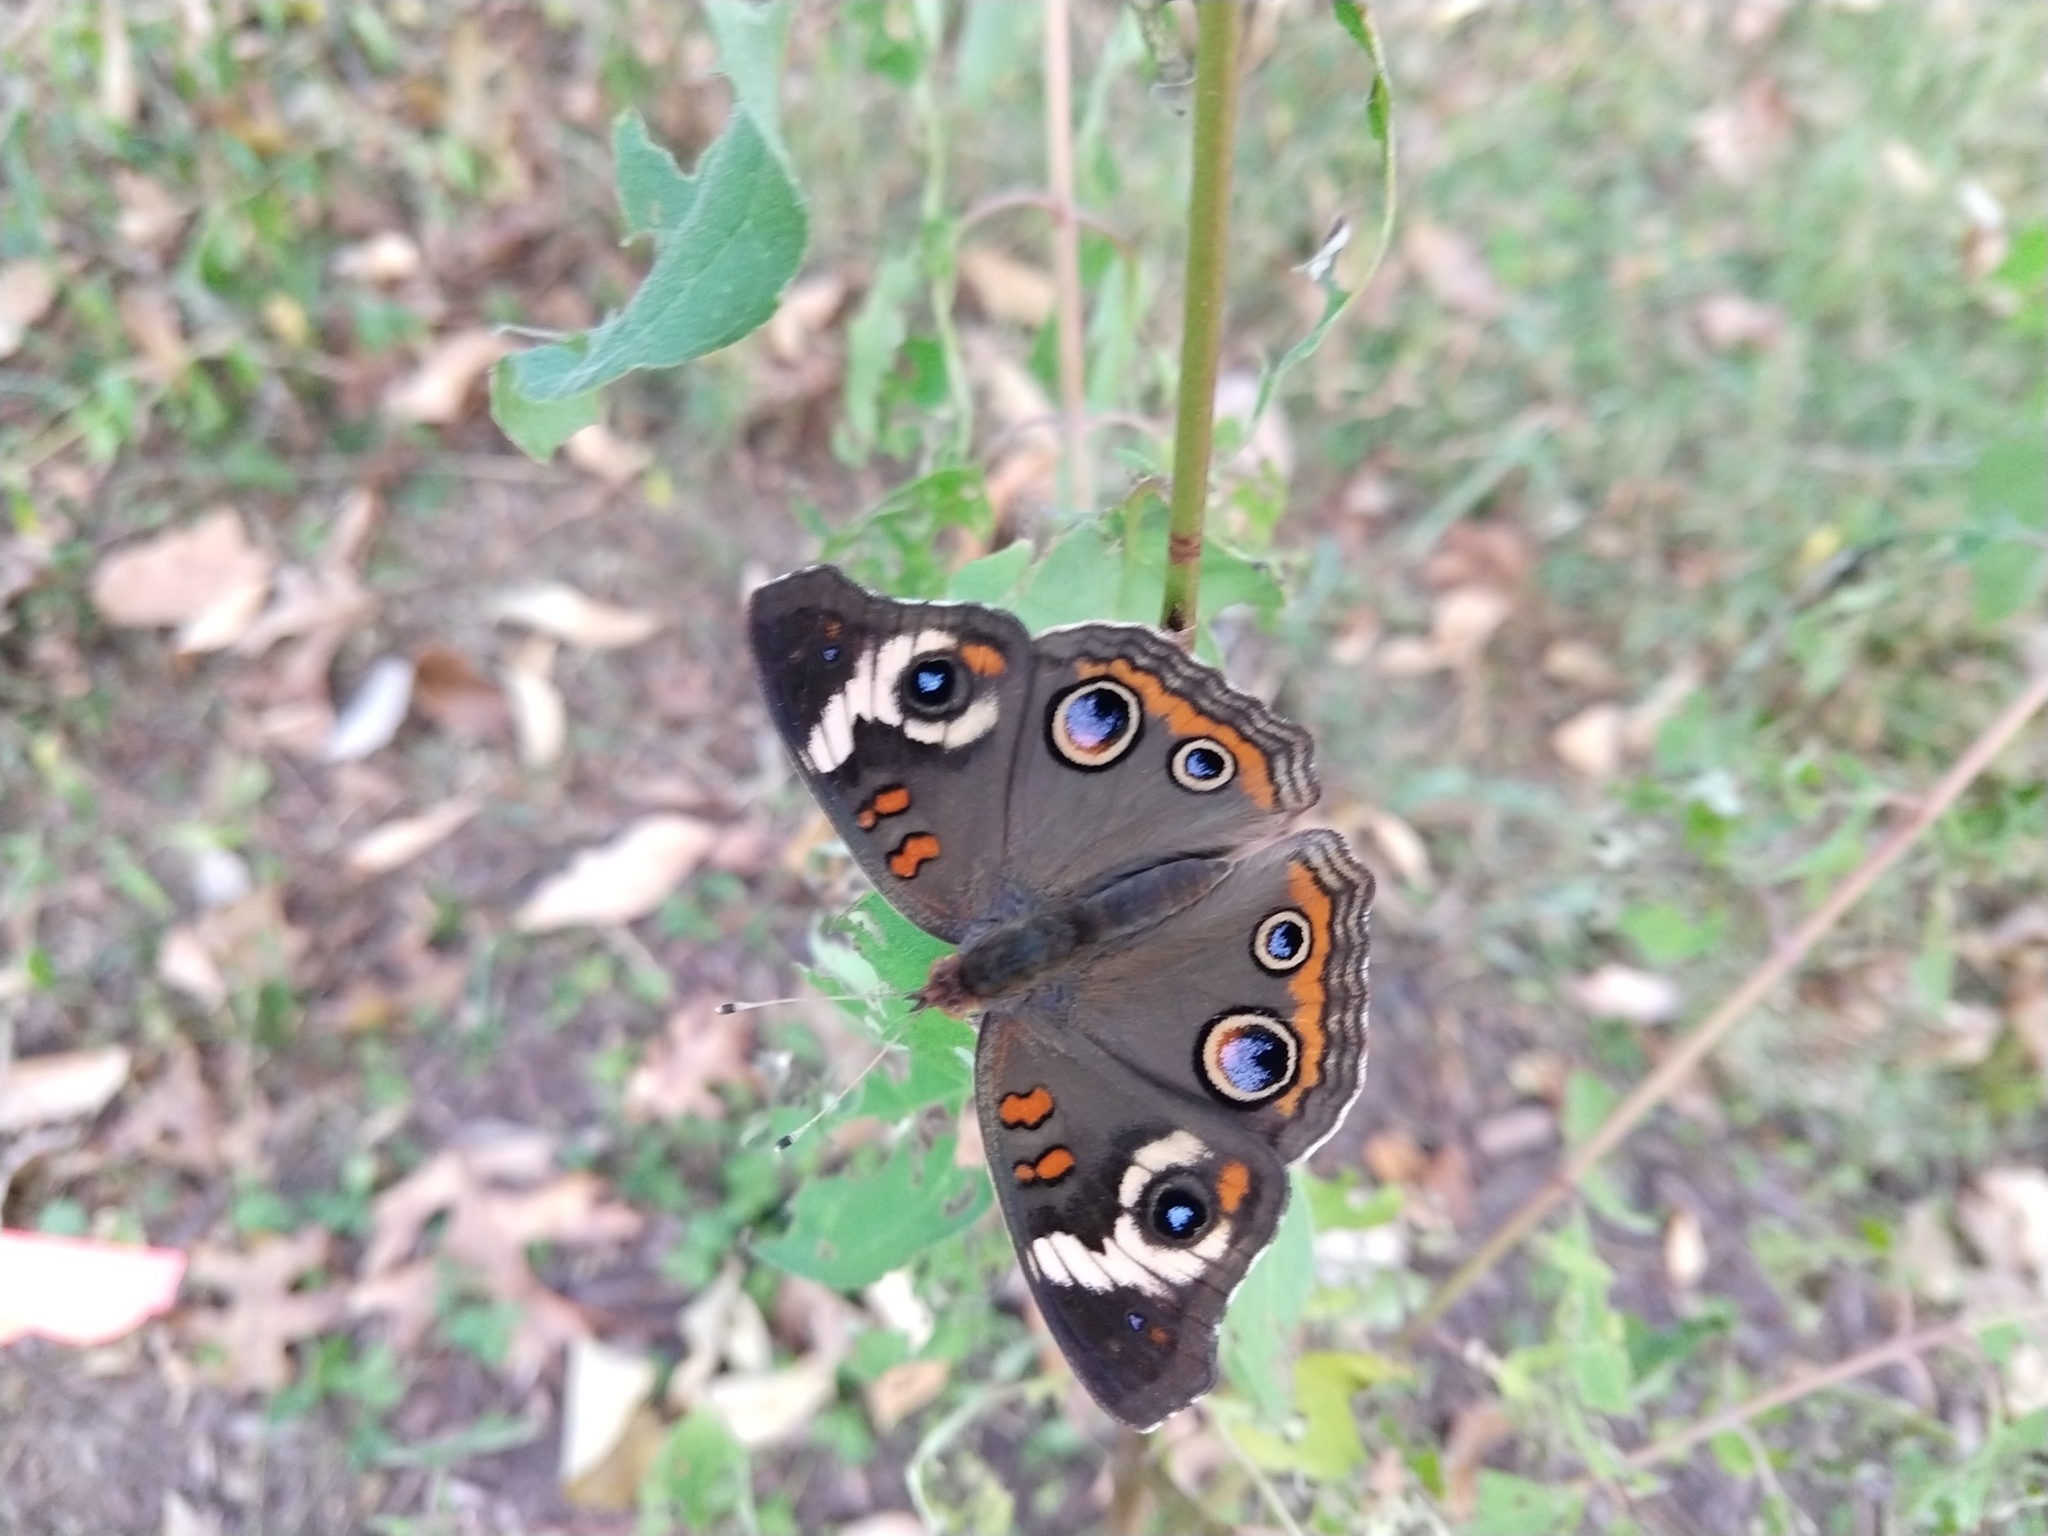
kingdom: Animalia
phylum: Arthropoda
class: Insecta
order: Lepidoptera
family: Nymphalidae
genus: Junonia
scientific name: Junonia coenia
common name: Common buckeye
